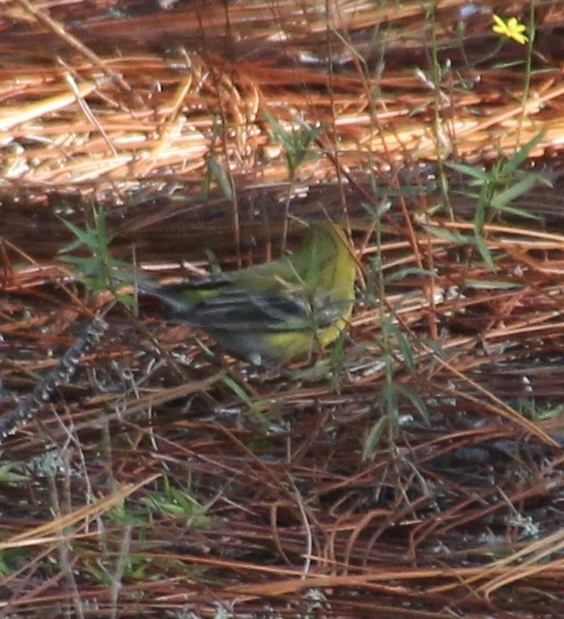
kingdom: Animalia
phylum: Chordata
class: Aves
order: Passeriformes
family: Parulidae
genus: Setophaga
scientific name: Setophaga pinus
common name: Pine warbler
